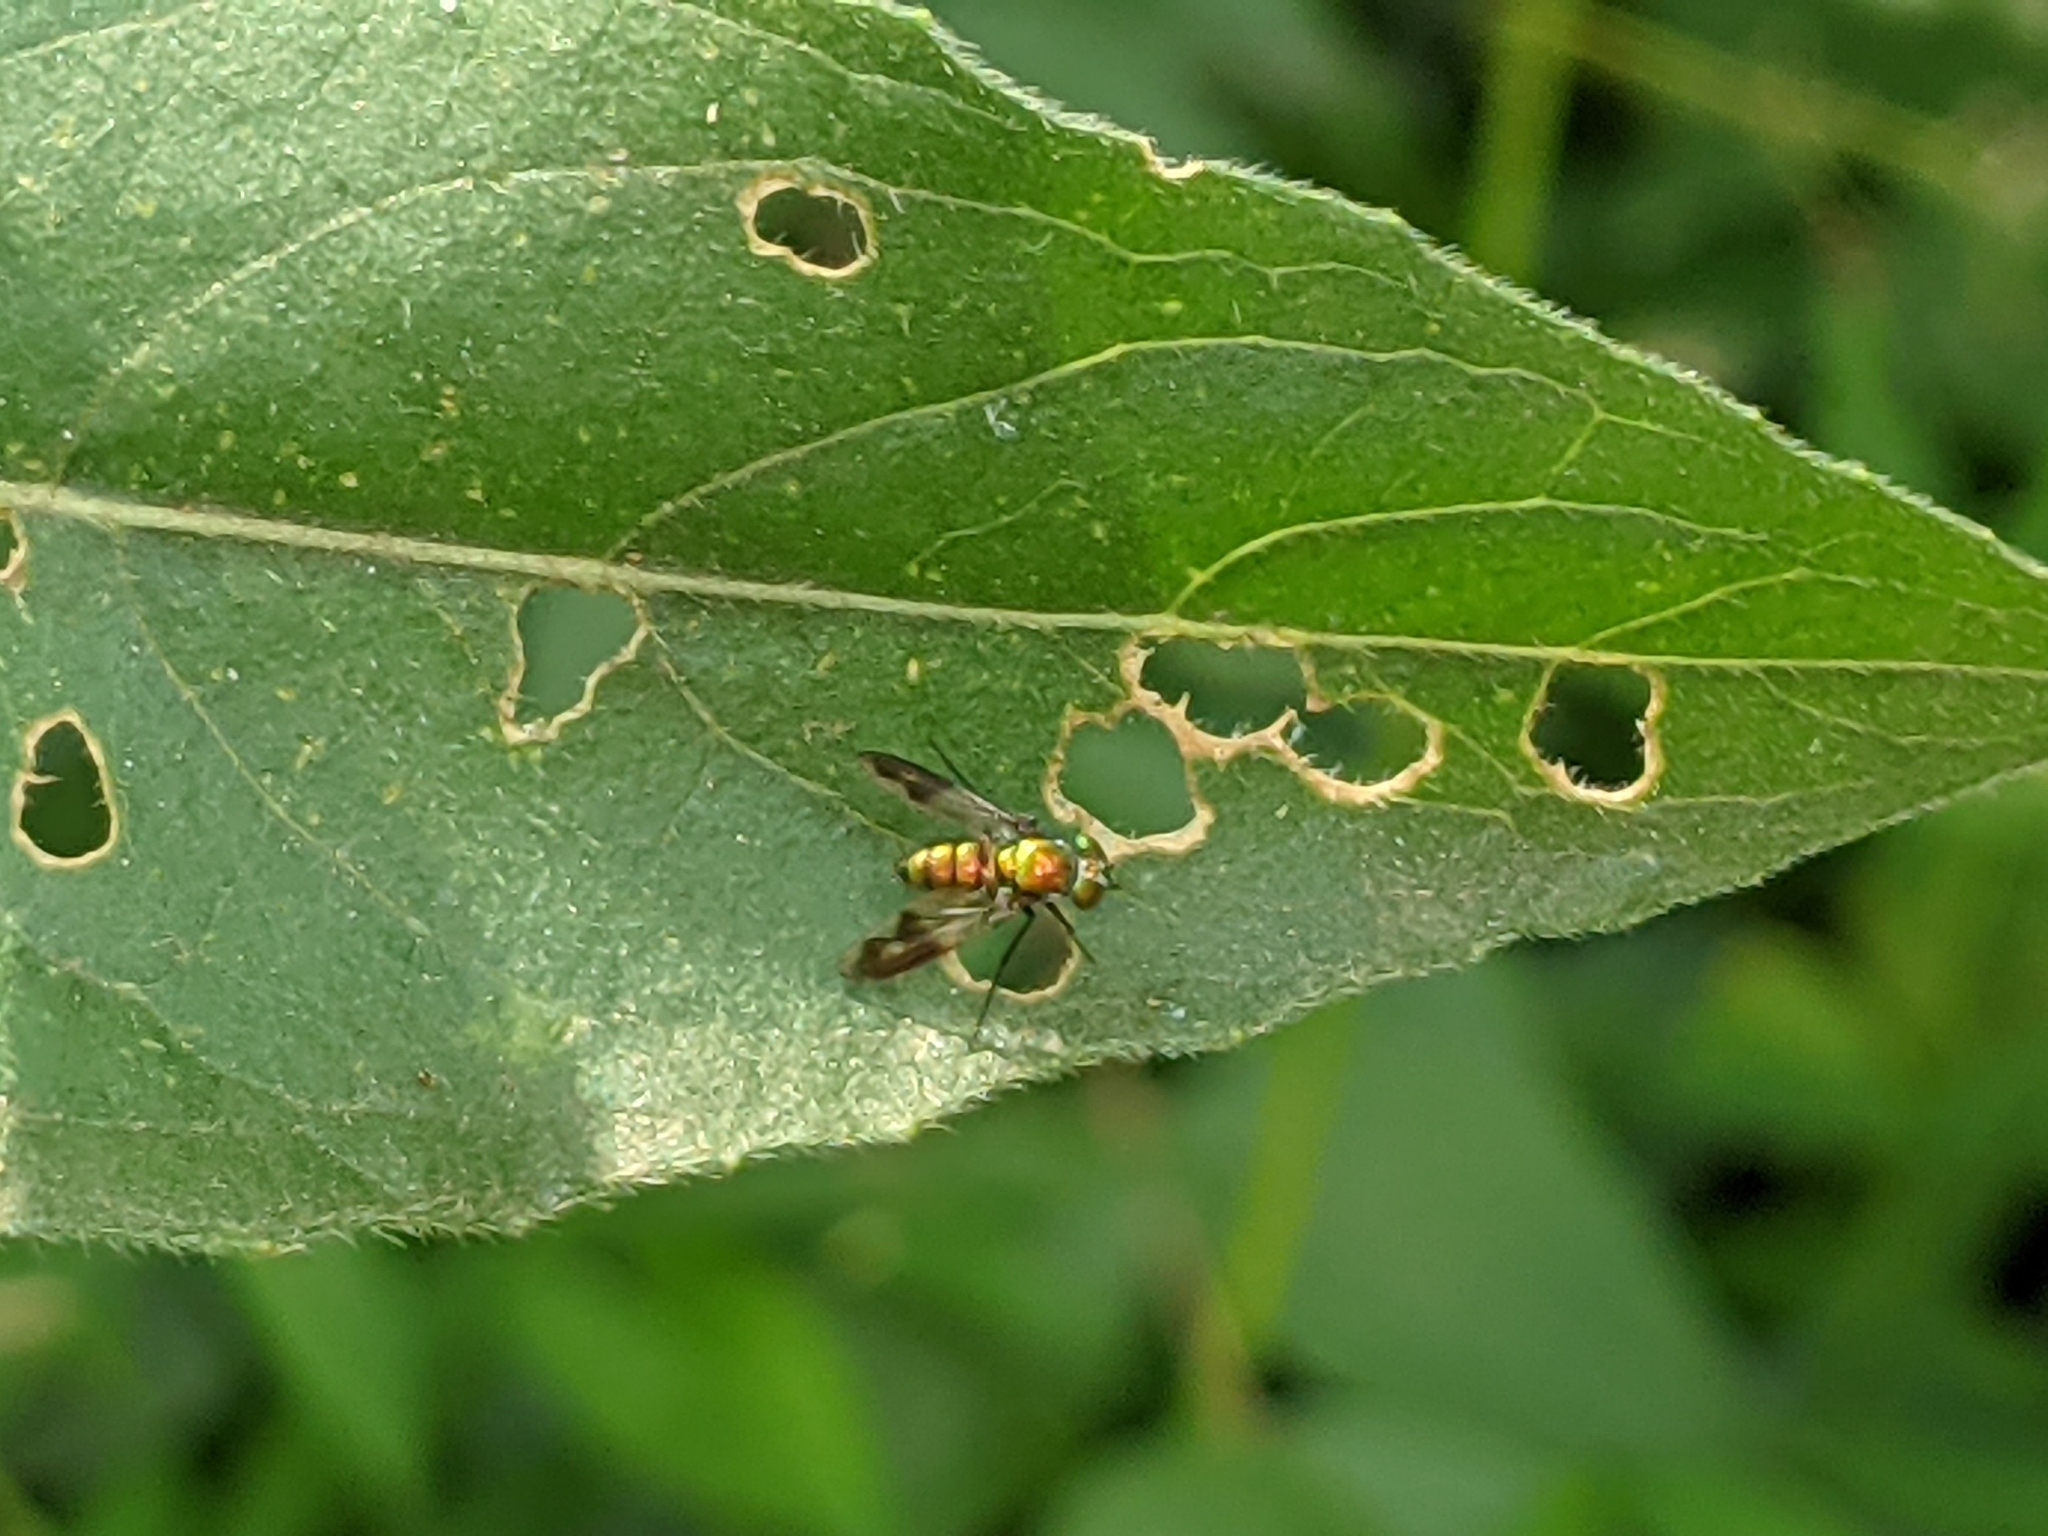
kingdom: Animalia
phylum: Arthropoda
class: Insecta
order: Diptera
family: Dolichopodidae
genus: Condylostylus
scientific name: Condylostylus patibulatus
